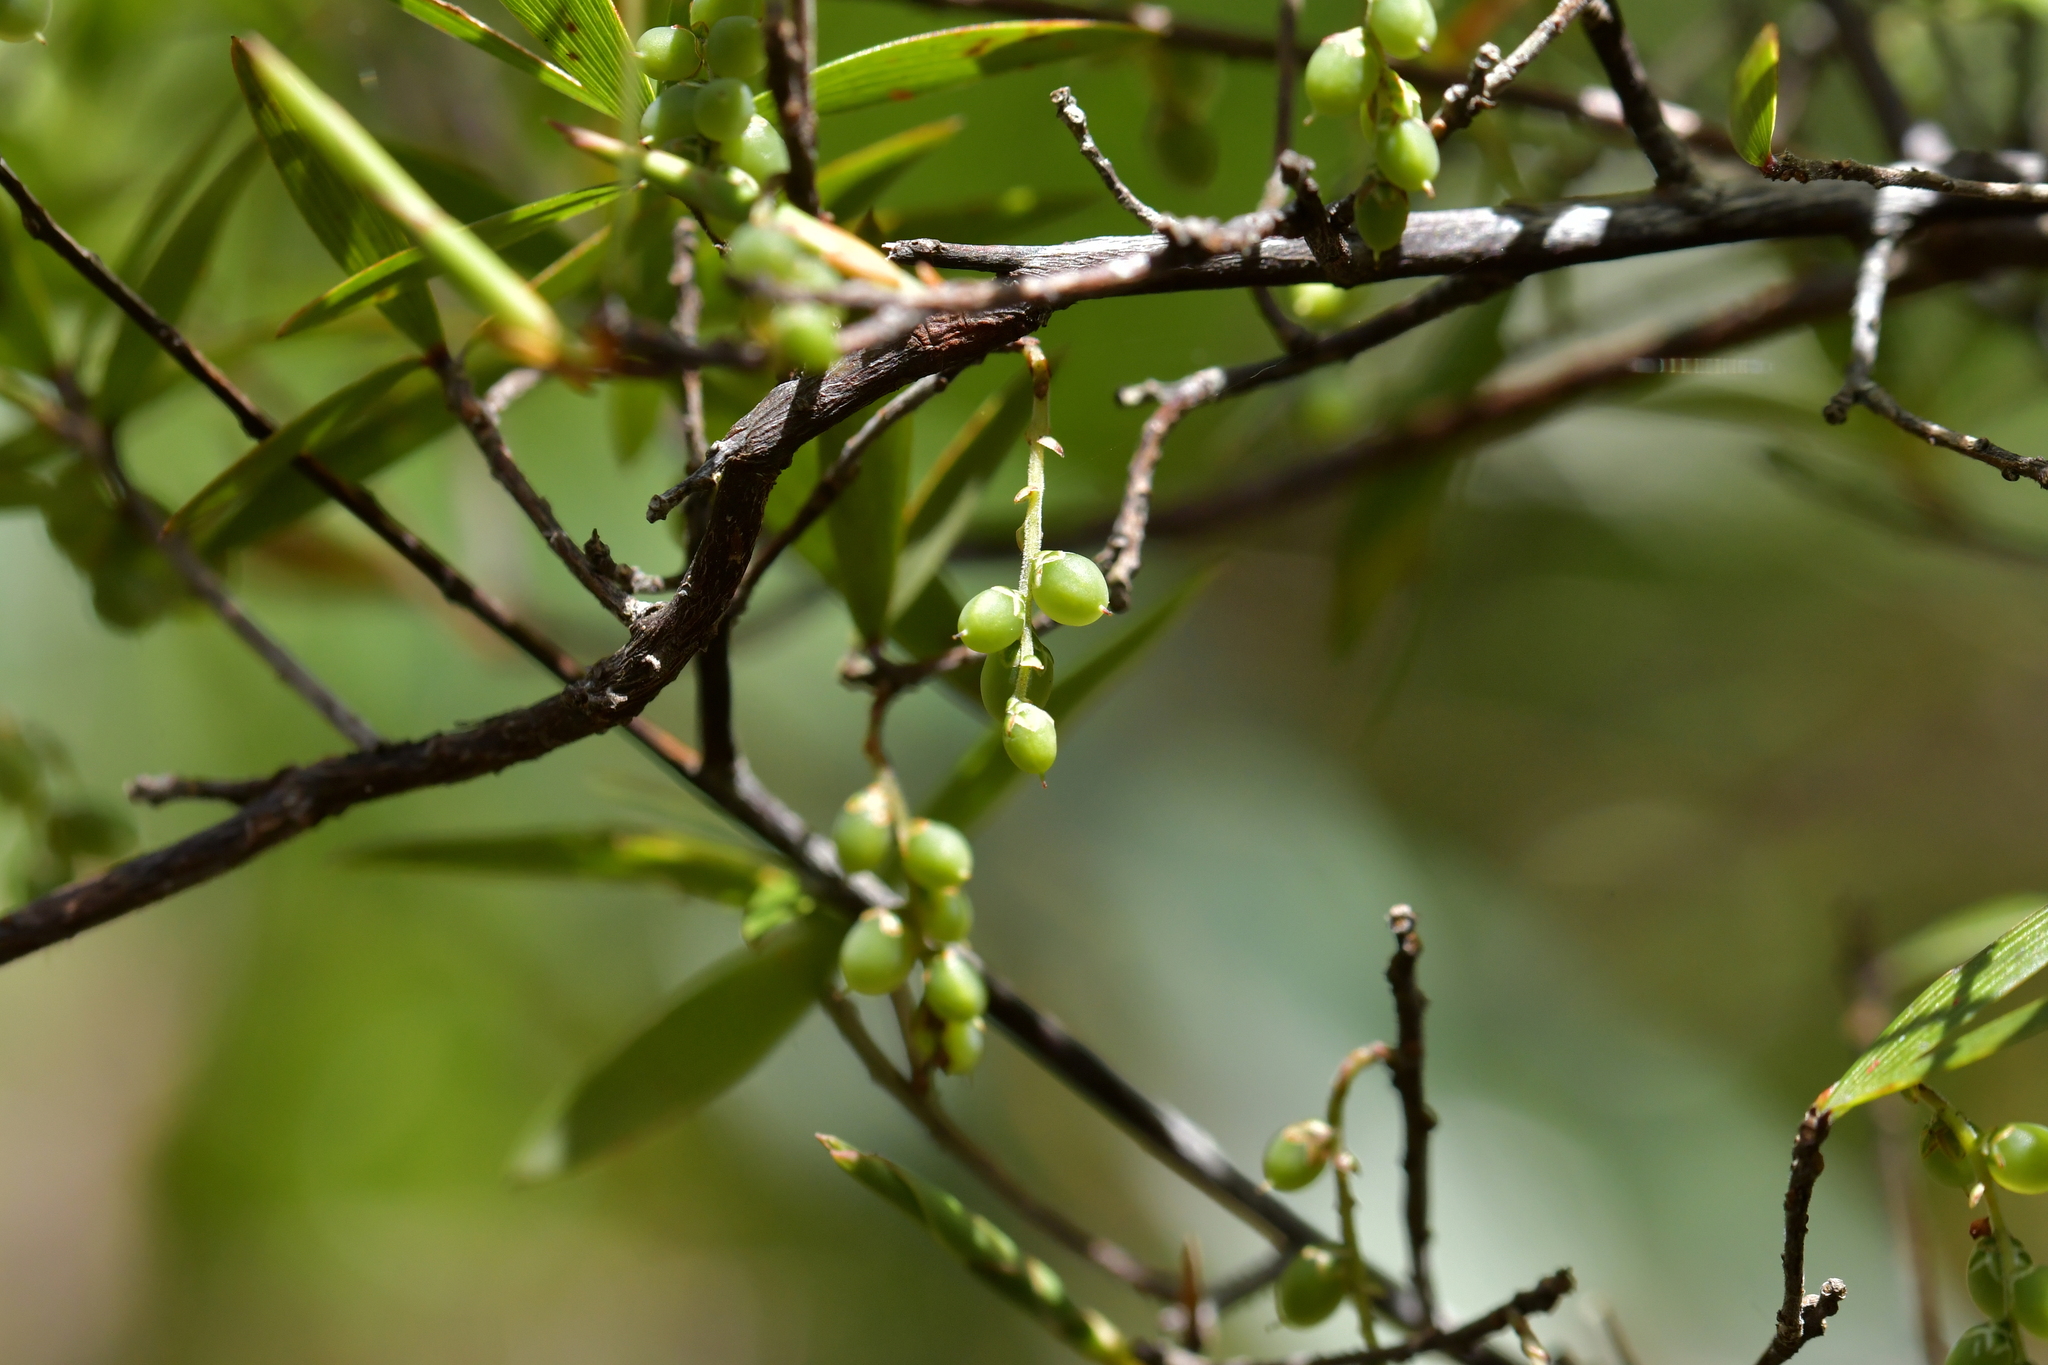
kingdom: Plantae
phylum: Tracheophyta
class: Magnoliopsida
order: Ericales
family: Ericaceae
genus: Leucopogon
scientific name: Leucopogon fasciculatus
